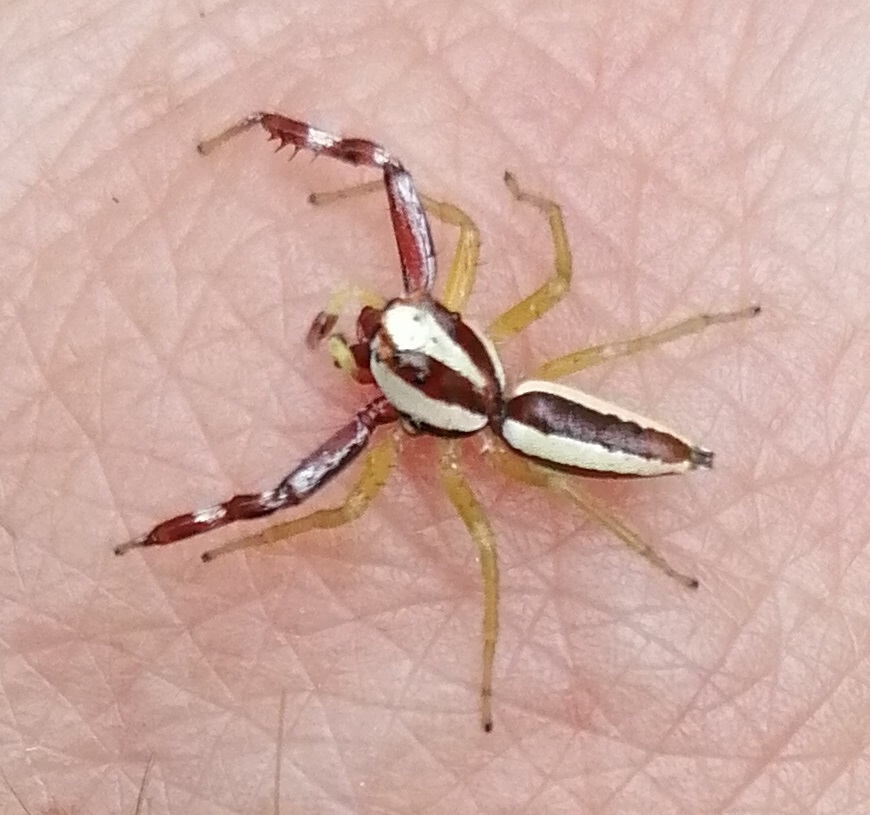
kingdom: Animalia
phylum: Arthropoda
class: Arachnida
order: Araneae
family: Salticidae
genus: Epocilla
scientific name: Epocilla calcarata
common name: Jumping spider
